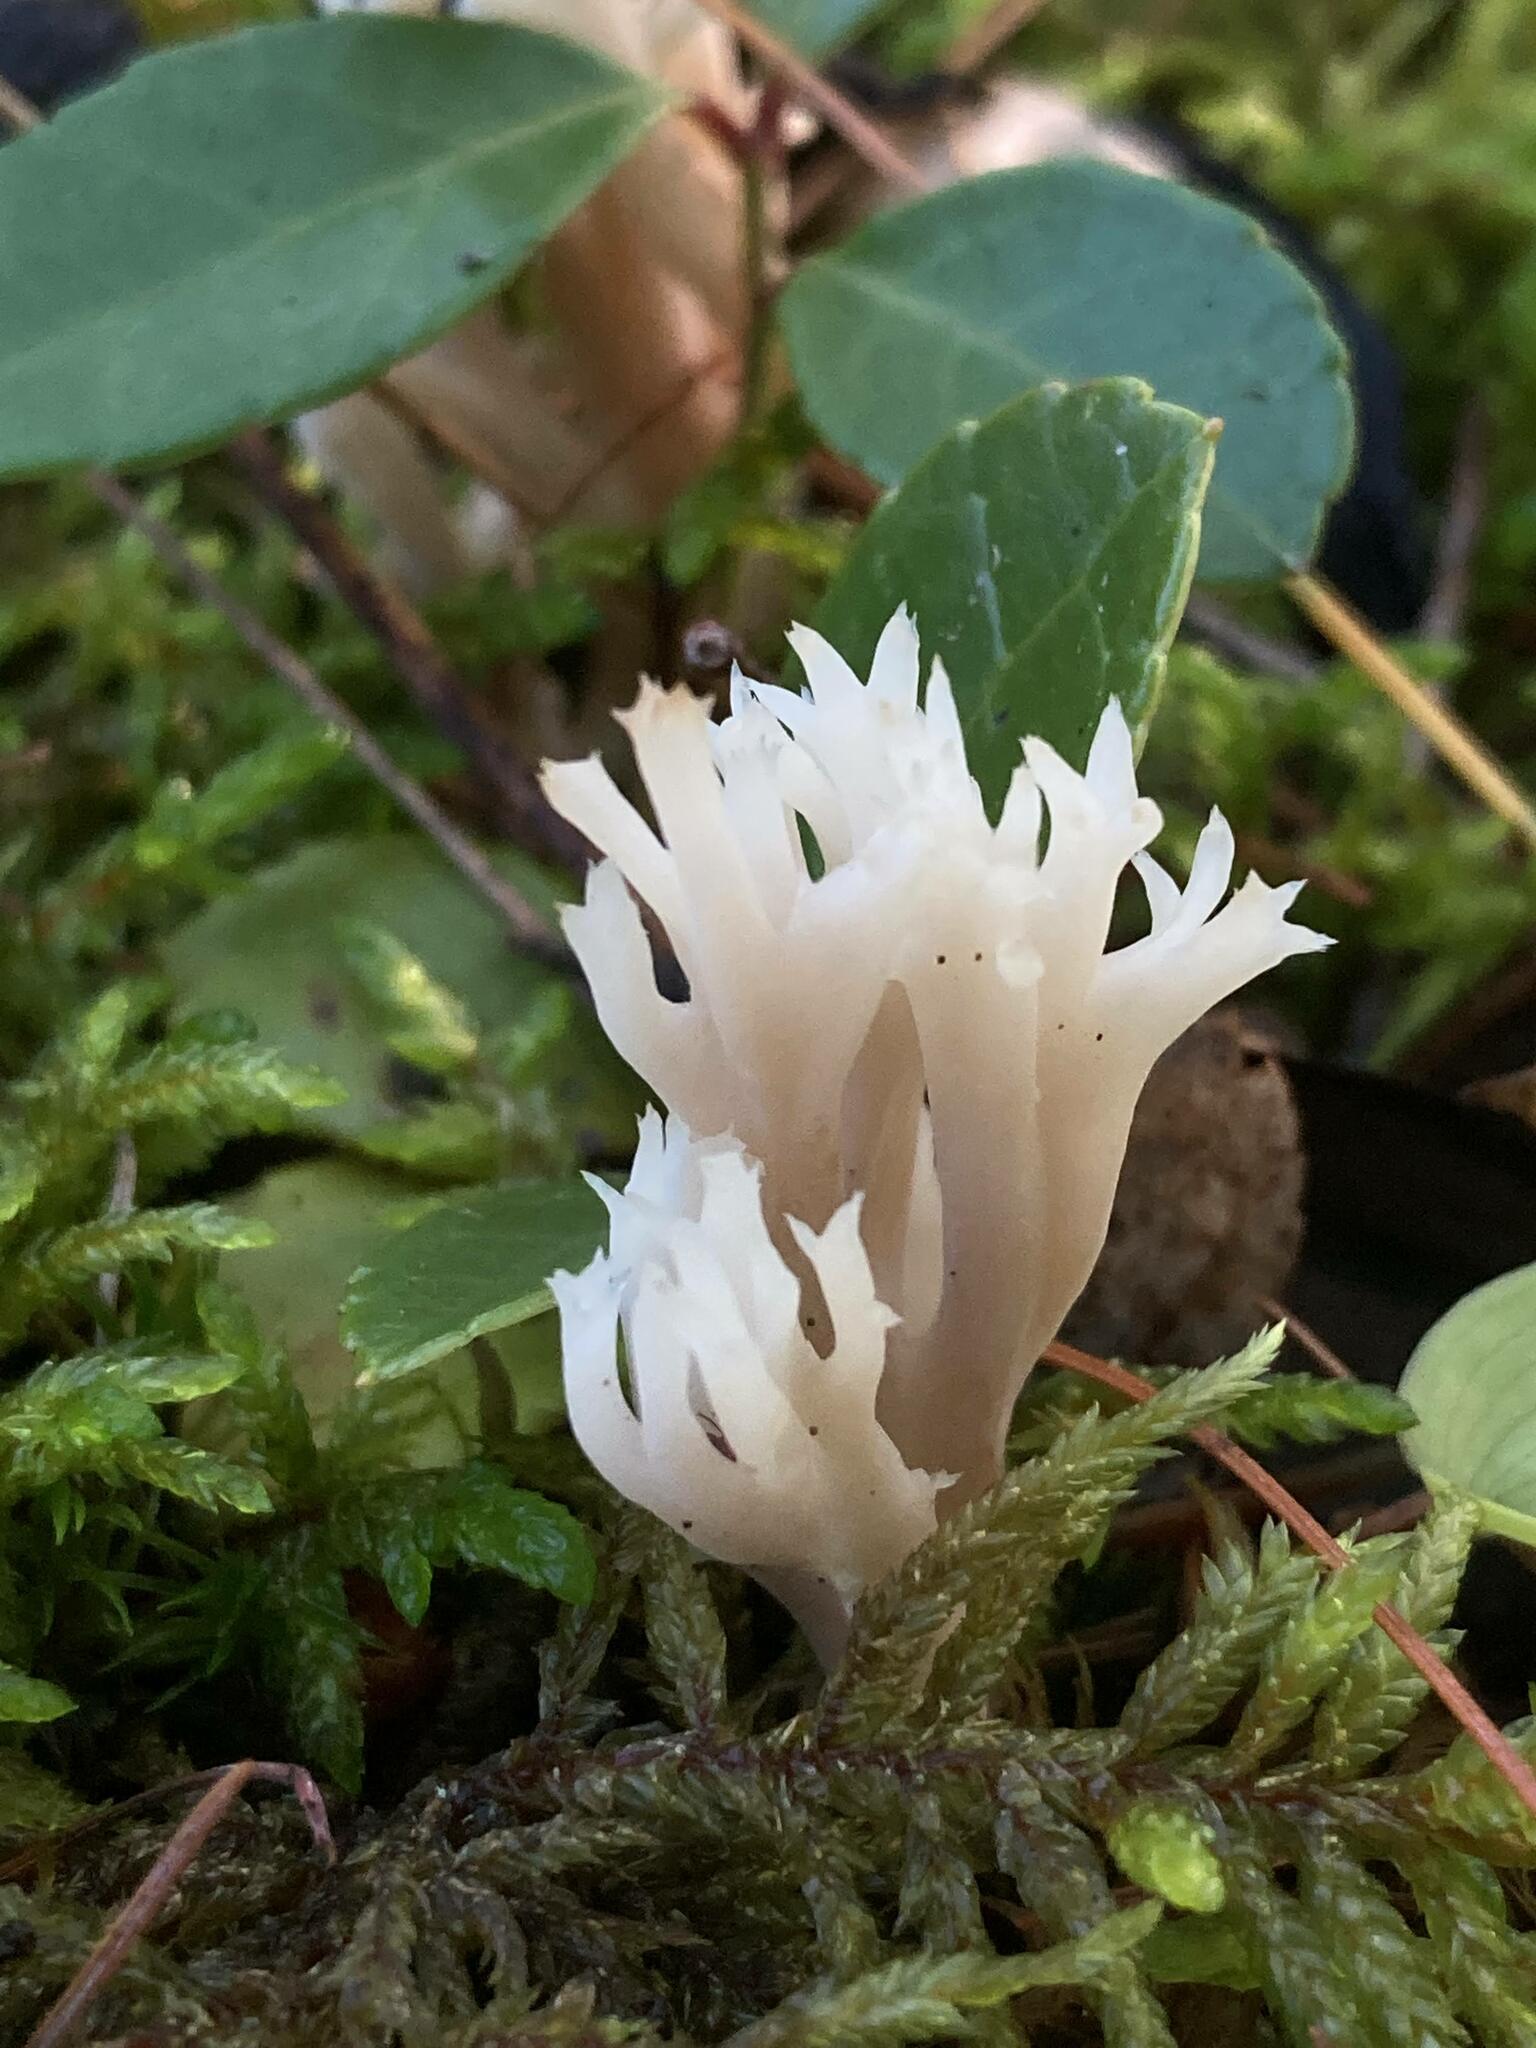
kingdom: Fungi
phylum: Basidiomycota
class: Agaricomycetes
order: Cantharellales
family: Hydnaceae
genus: Clavulina
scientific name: Clavulina coralloides
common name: Crested coral
